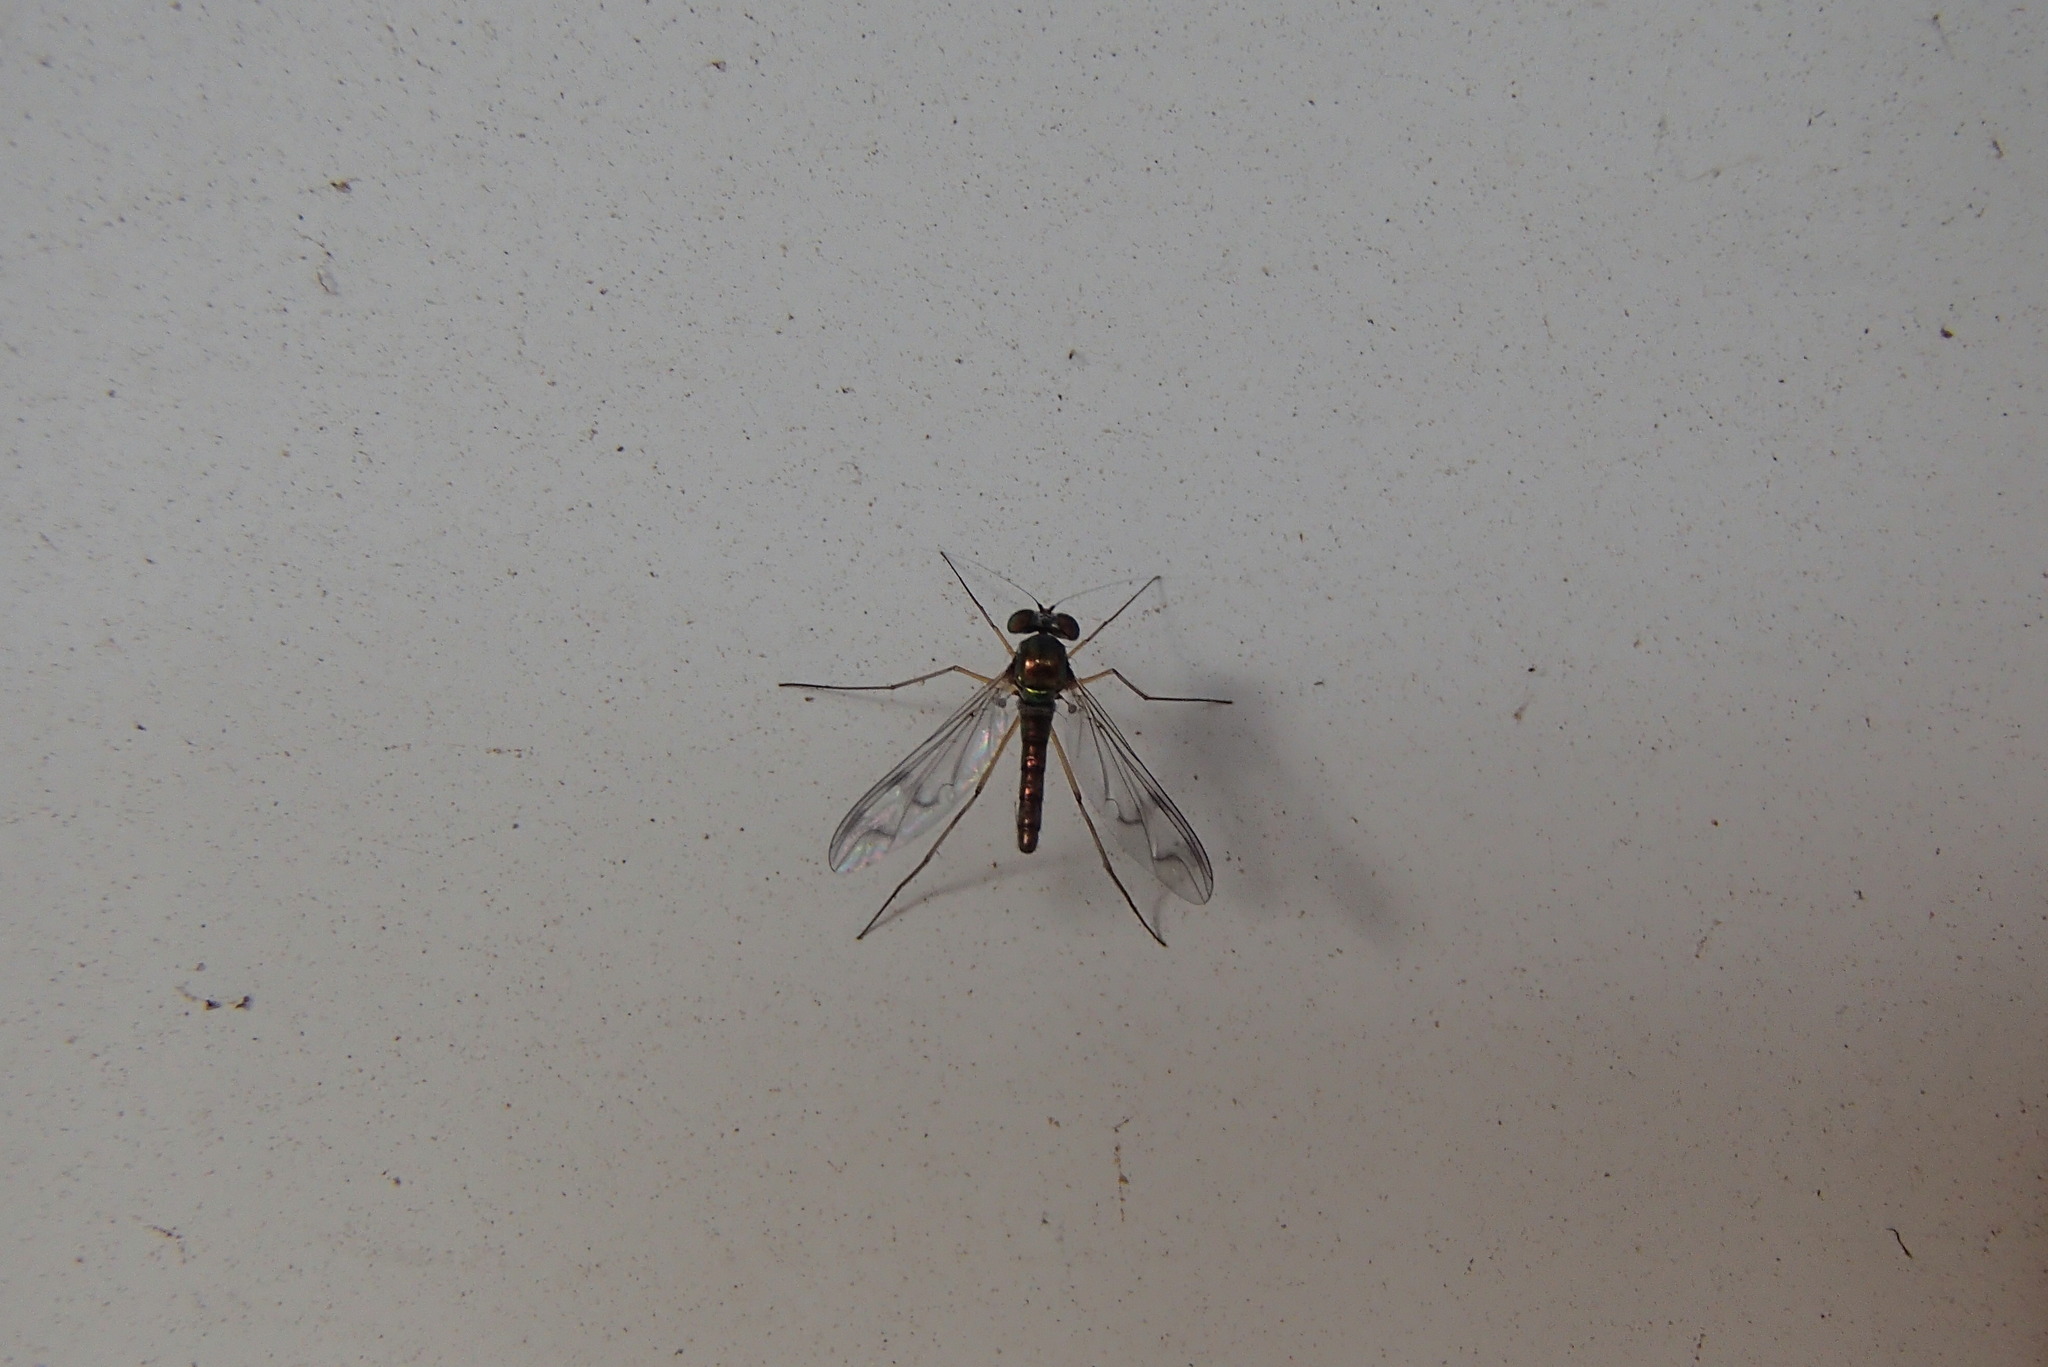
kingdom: Animalia
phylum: Arthropoda
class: Insecta
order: Diptera
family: Dolichopodidae
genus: Heteropsilopus
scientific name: Heteropsilopus squamifer
